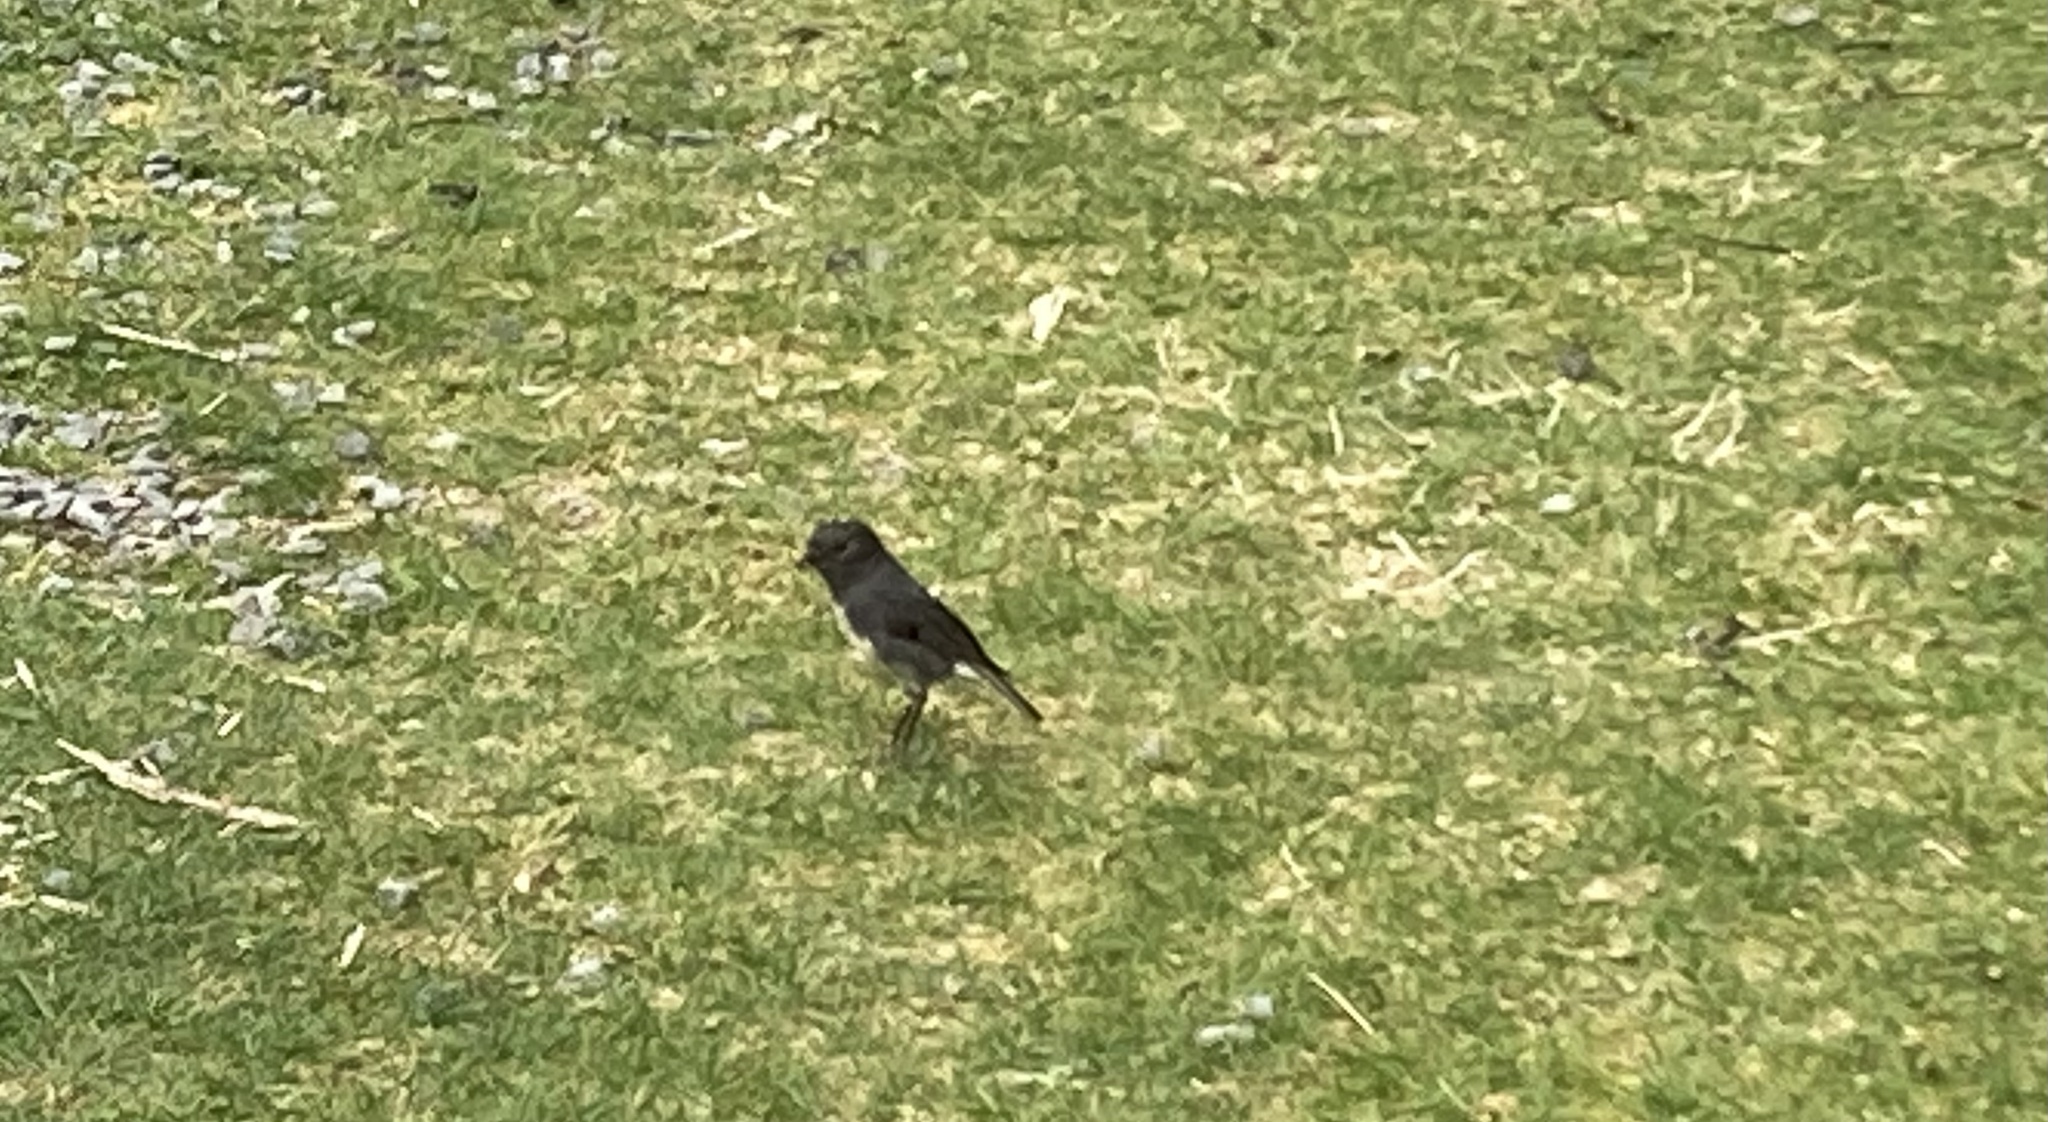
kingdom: Animalia
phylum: Chordata
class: Aves
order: Passeriformes
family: Petroicidae
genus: Petroica
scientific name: Petroica australis
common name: New zealand robin
